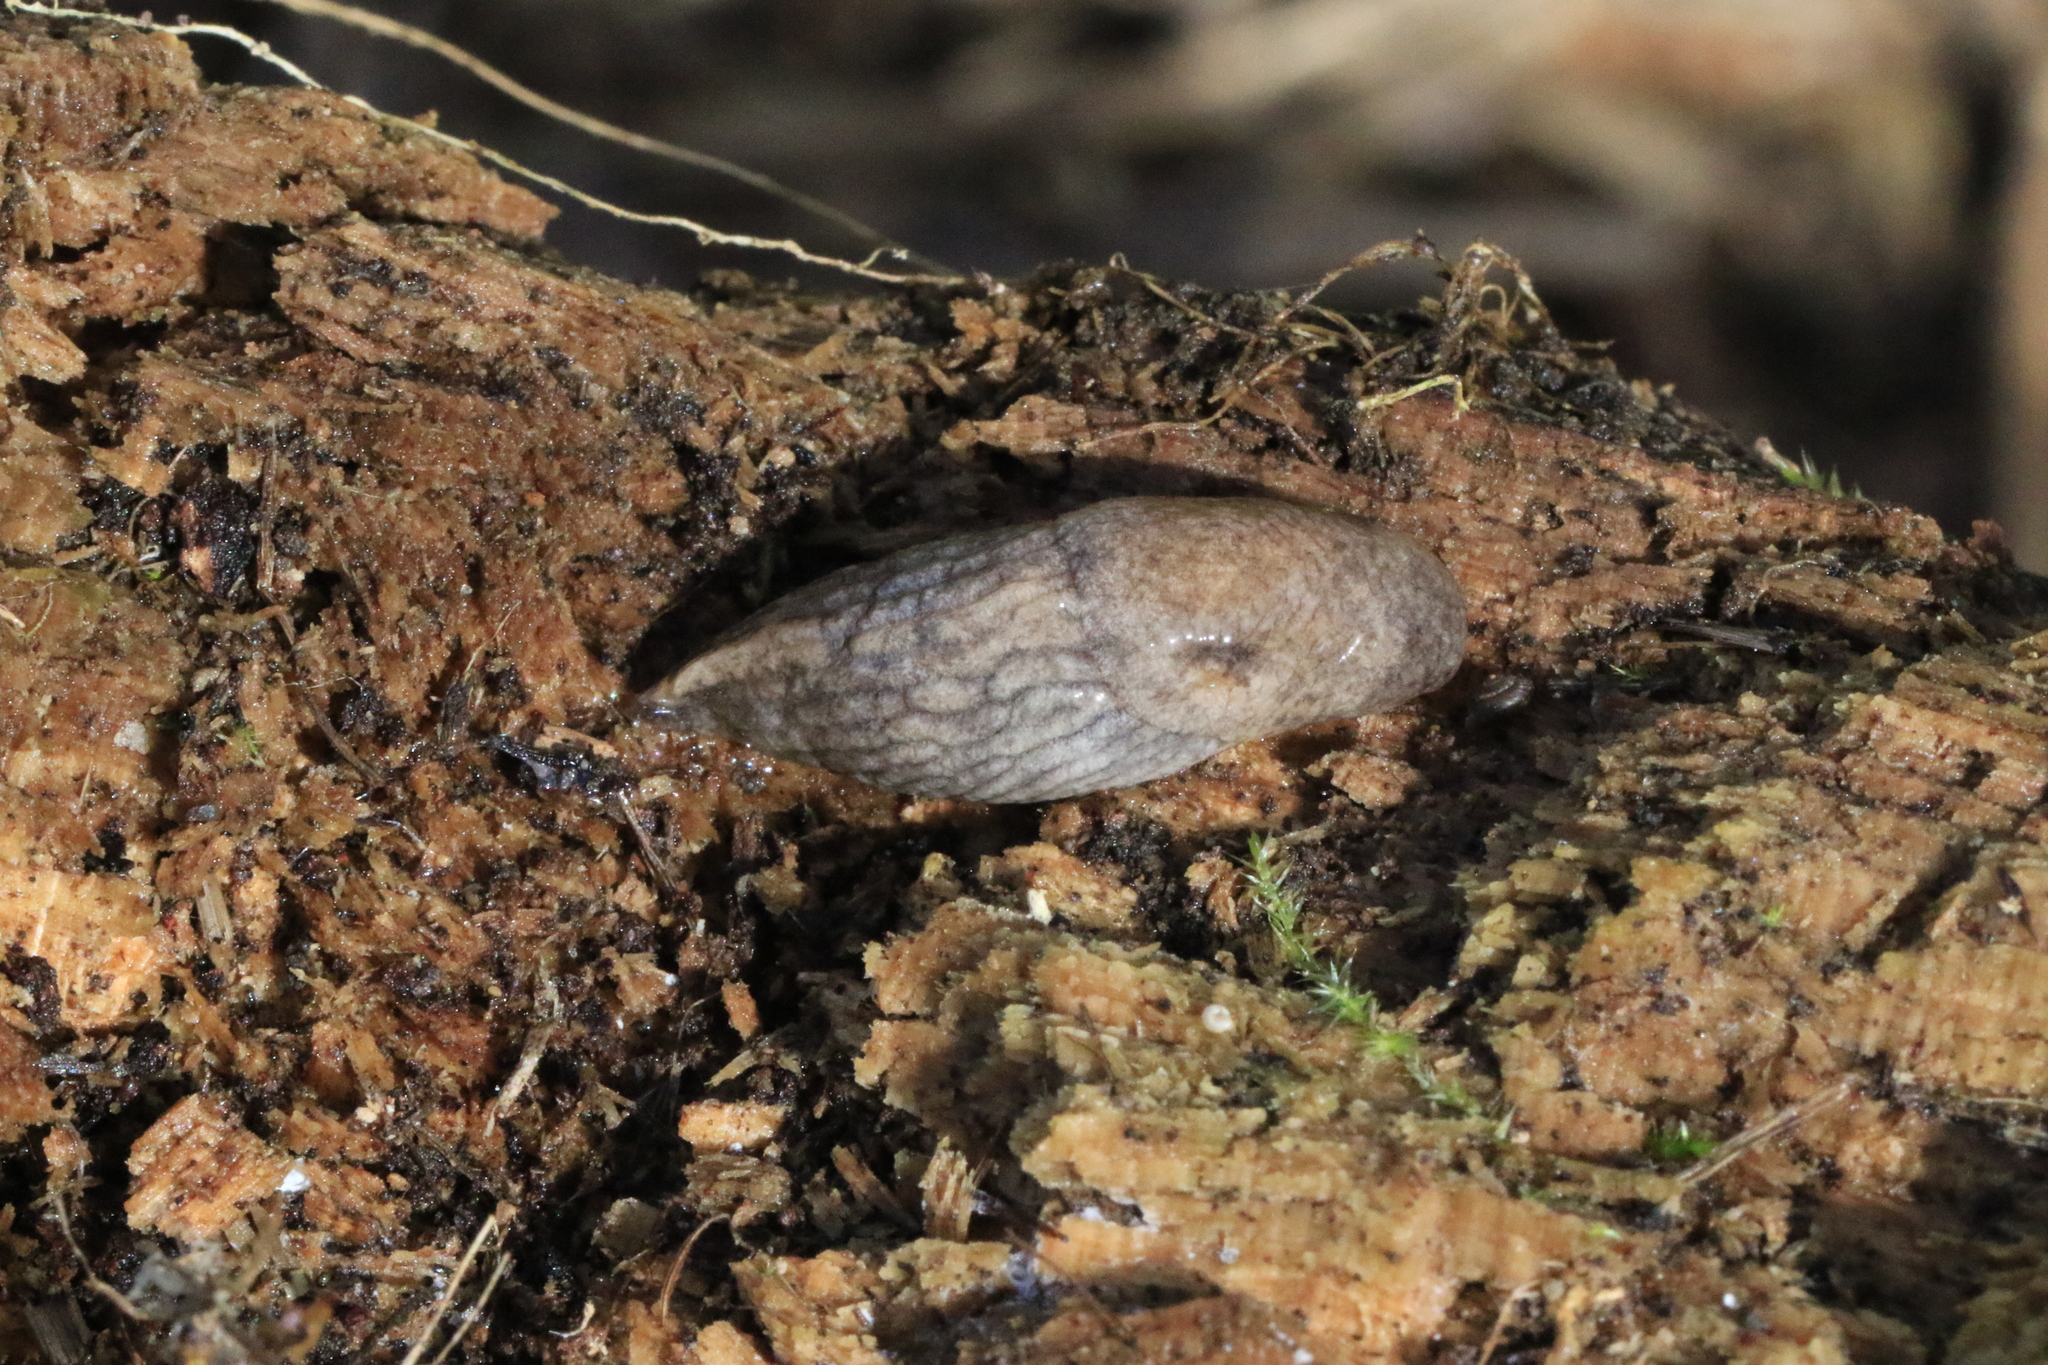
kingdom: Animalia
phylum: Mollusca
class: Gastropoda
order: Stylommatophora
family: Agriolimacidae
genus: Deroceras
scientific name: Deroceras reticulatum
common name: Gray field slug
